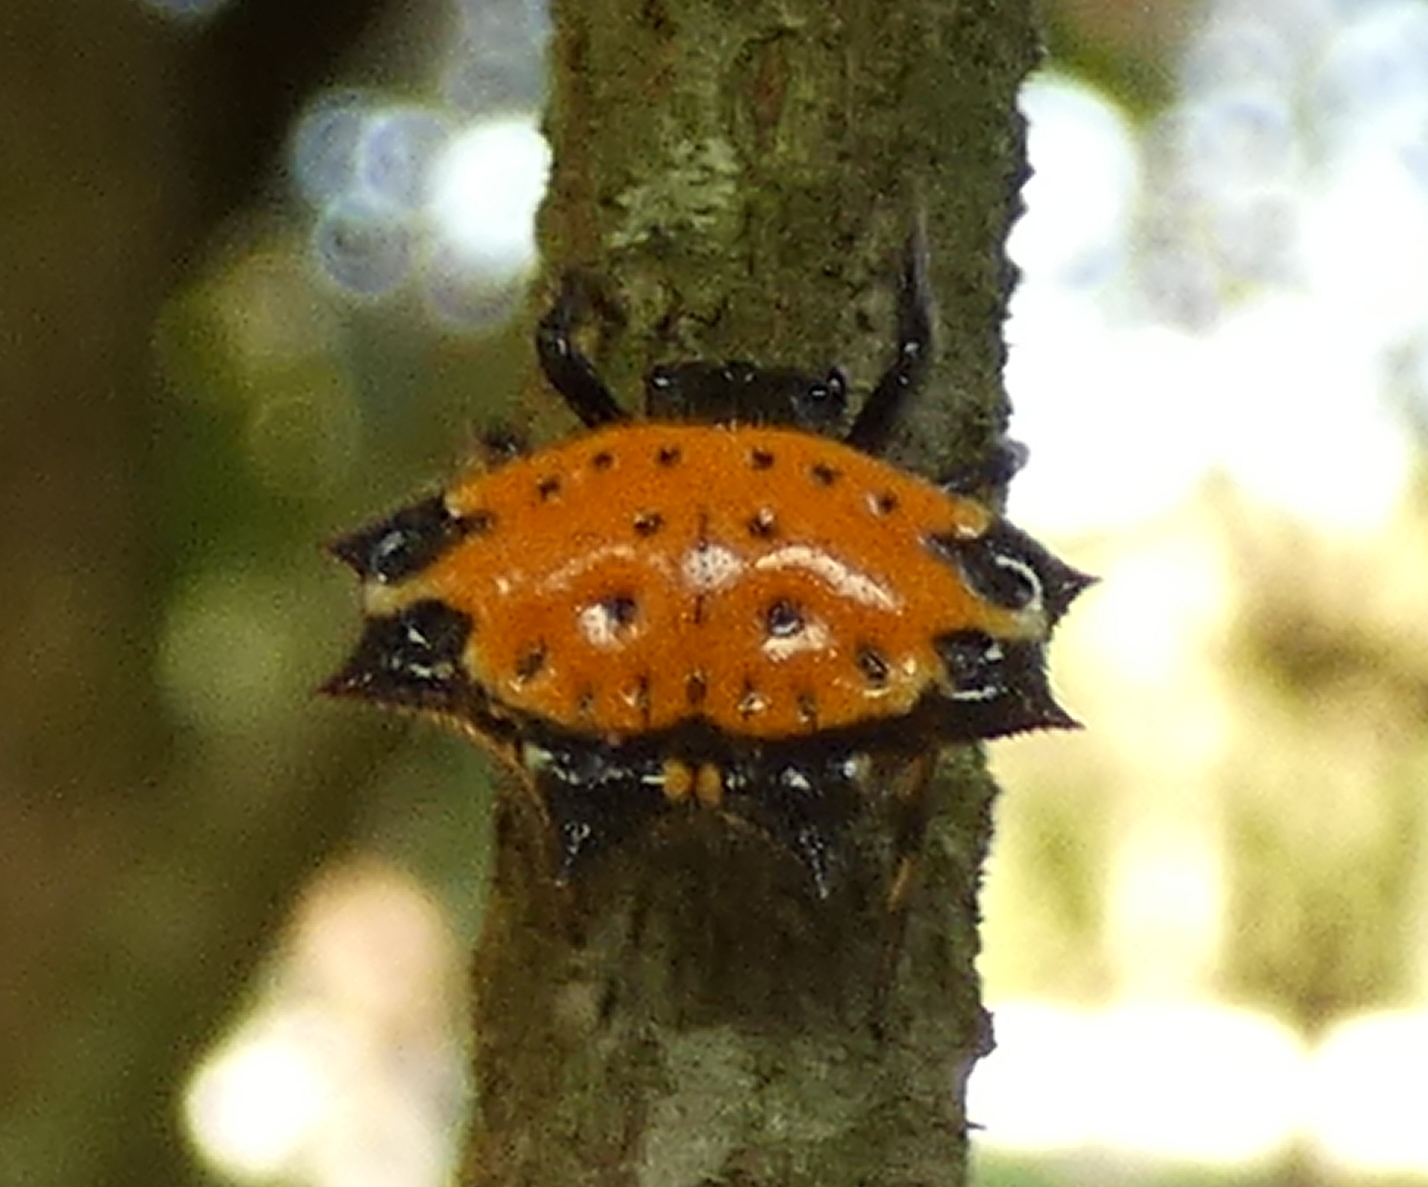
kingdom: Animalia
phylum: Arthropoda
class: Arachnida
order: Araneae
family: Araneidae
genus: Gasteracantha
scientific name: Gasteracantha cancriformis
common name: Orb weavers
